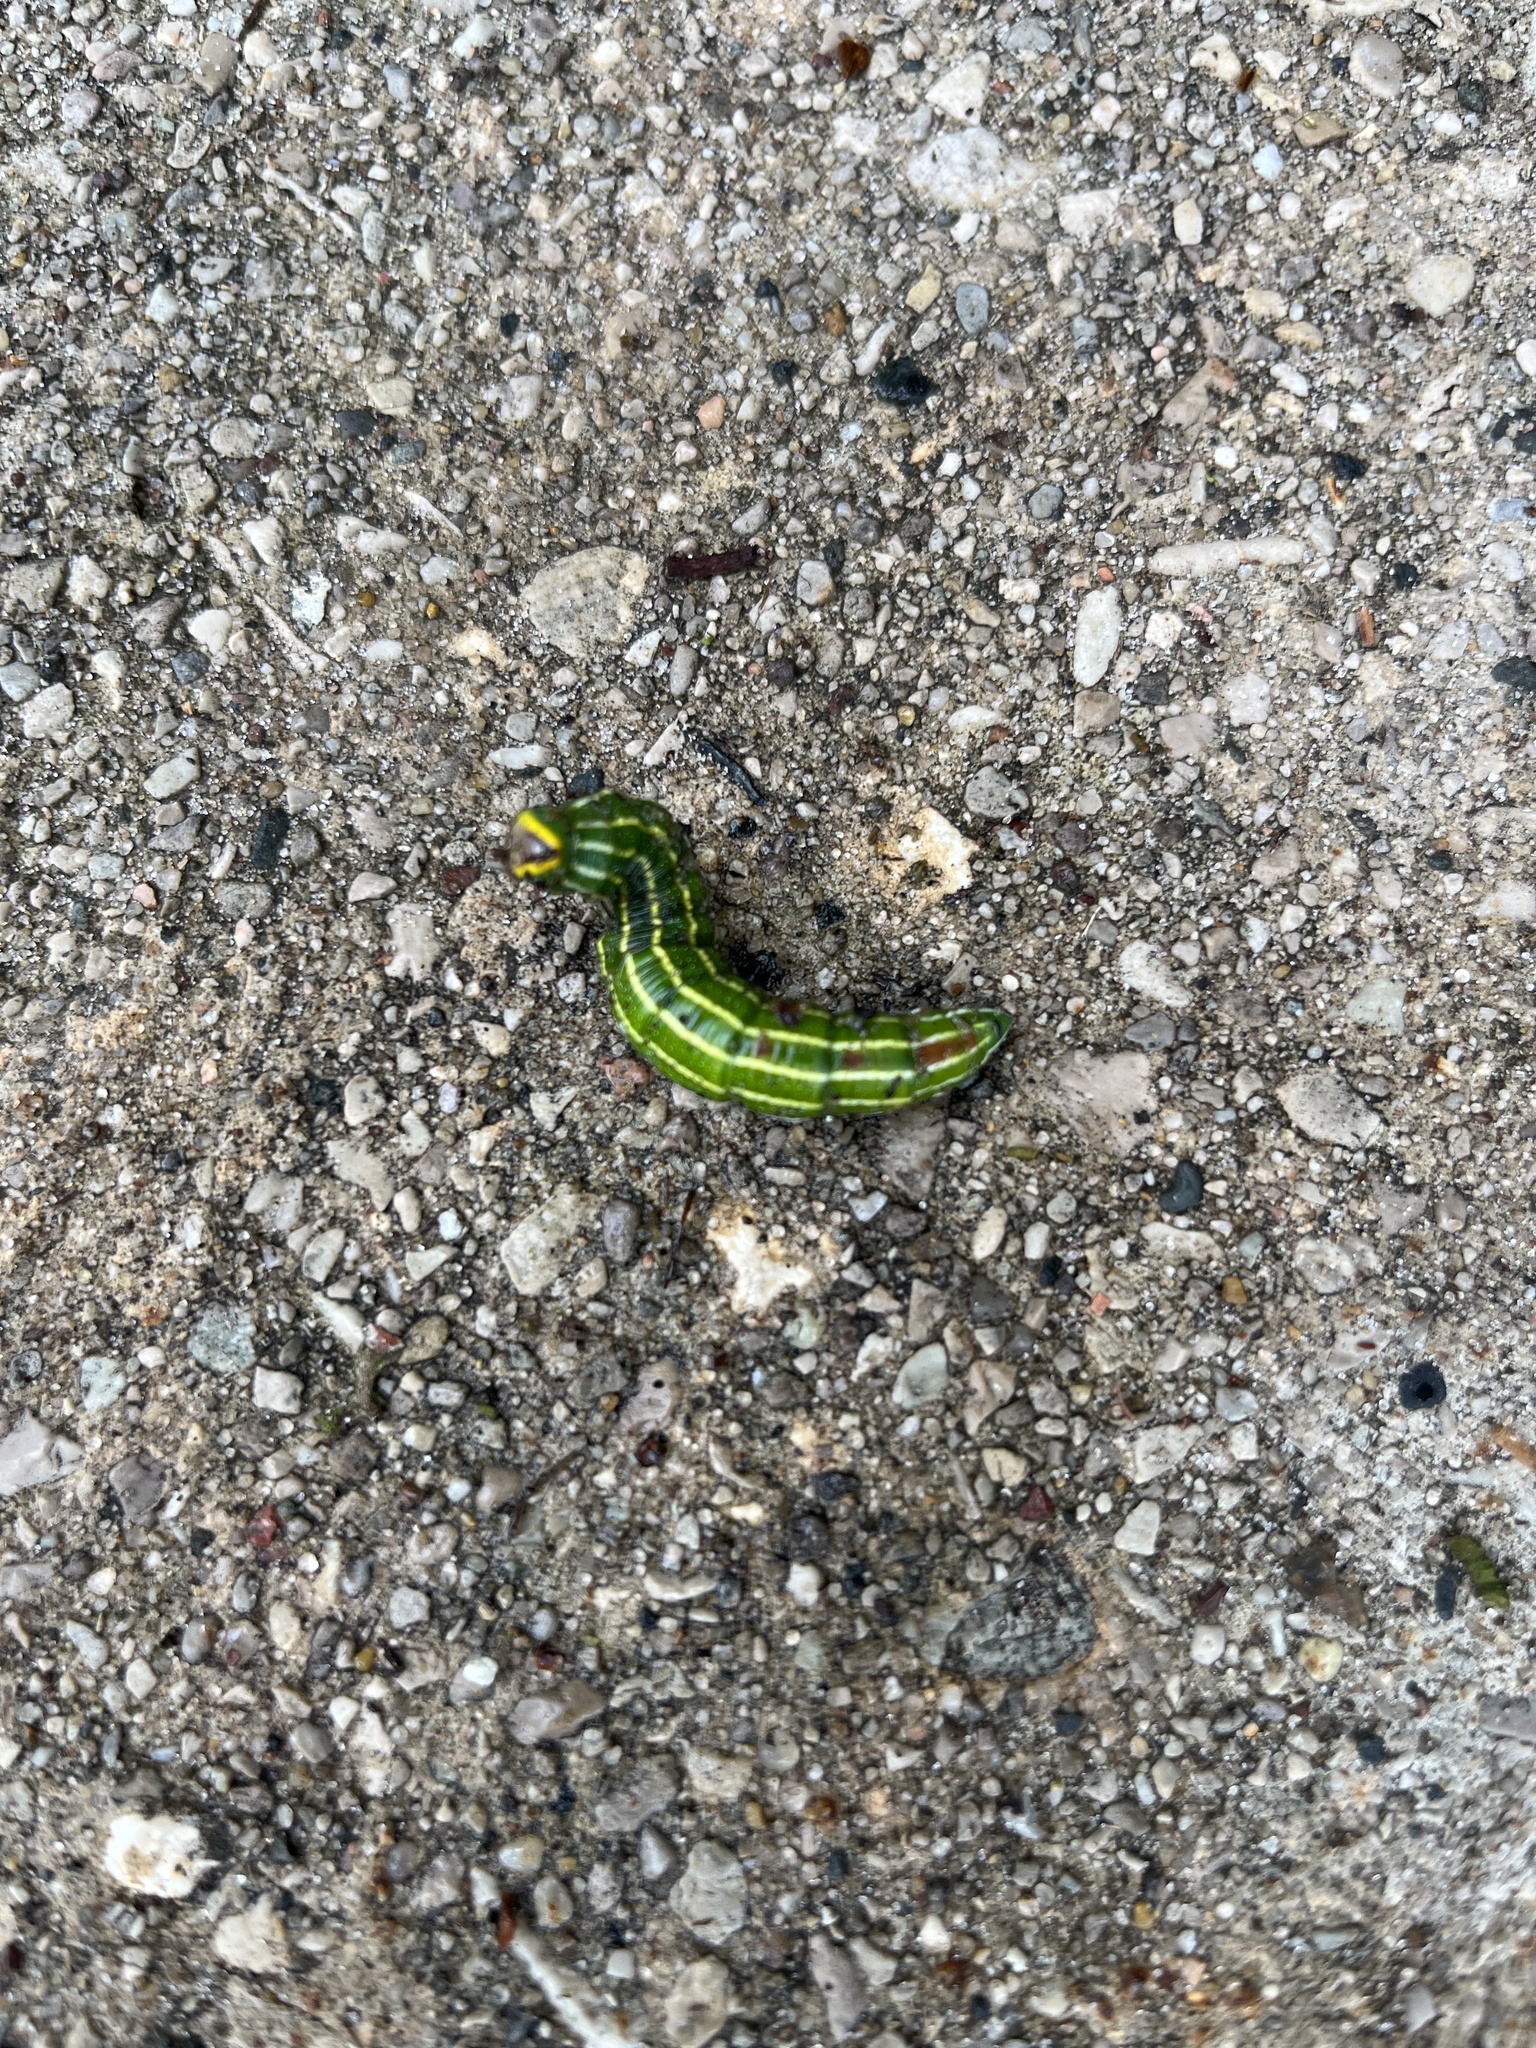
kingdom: Animalia
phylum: Arthropoda
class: Insecta
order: Lepidoptera
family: Sphingidae
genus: Lapara
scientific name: Lapara bombycoides
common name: Northern pine sphinx
